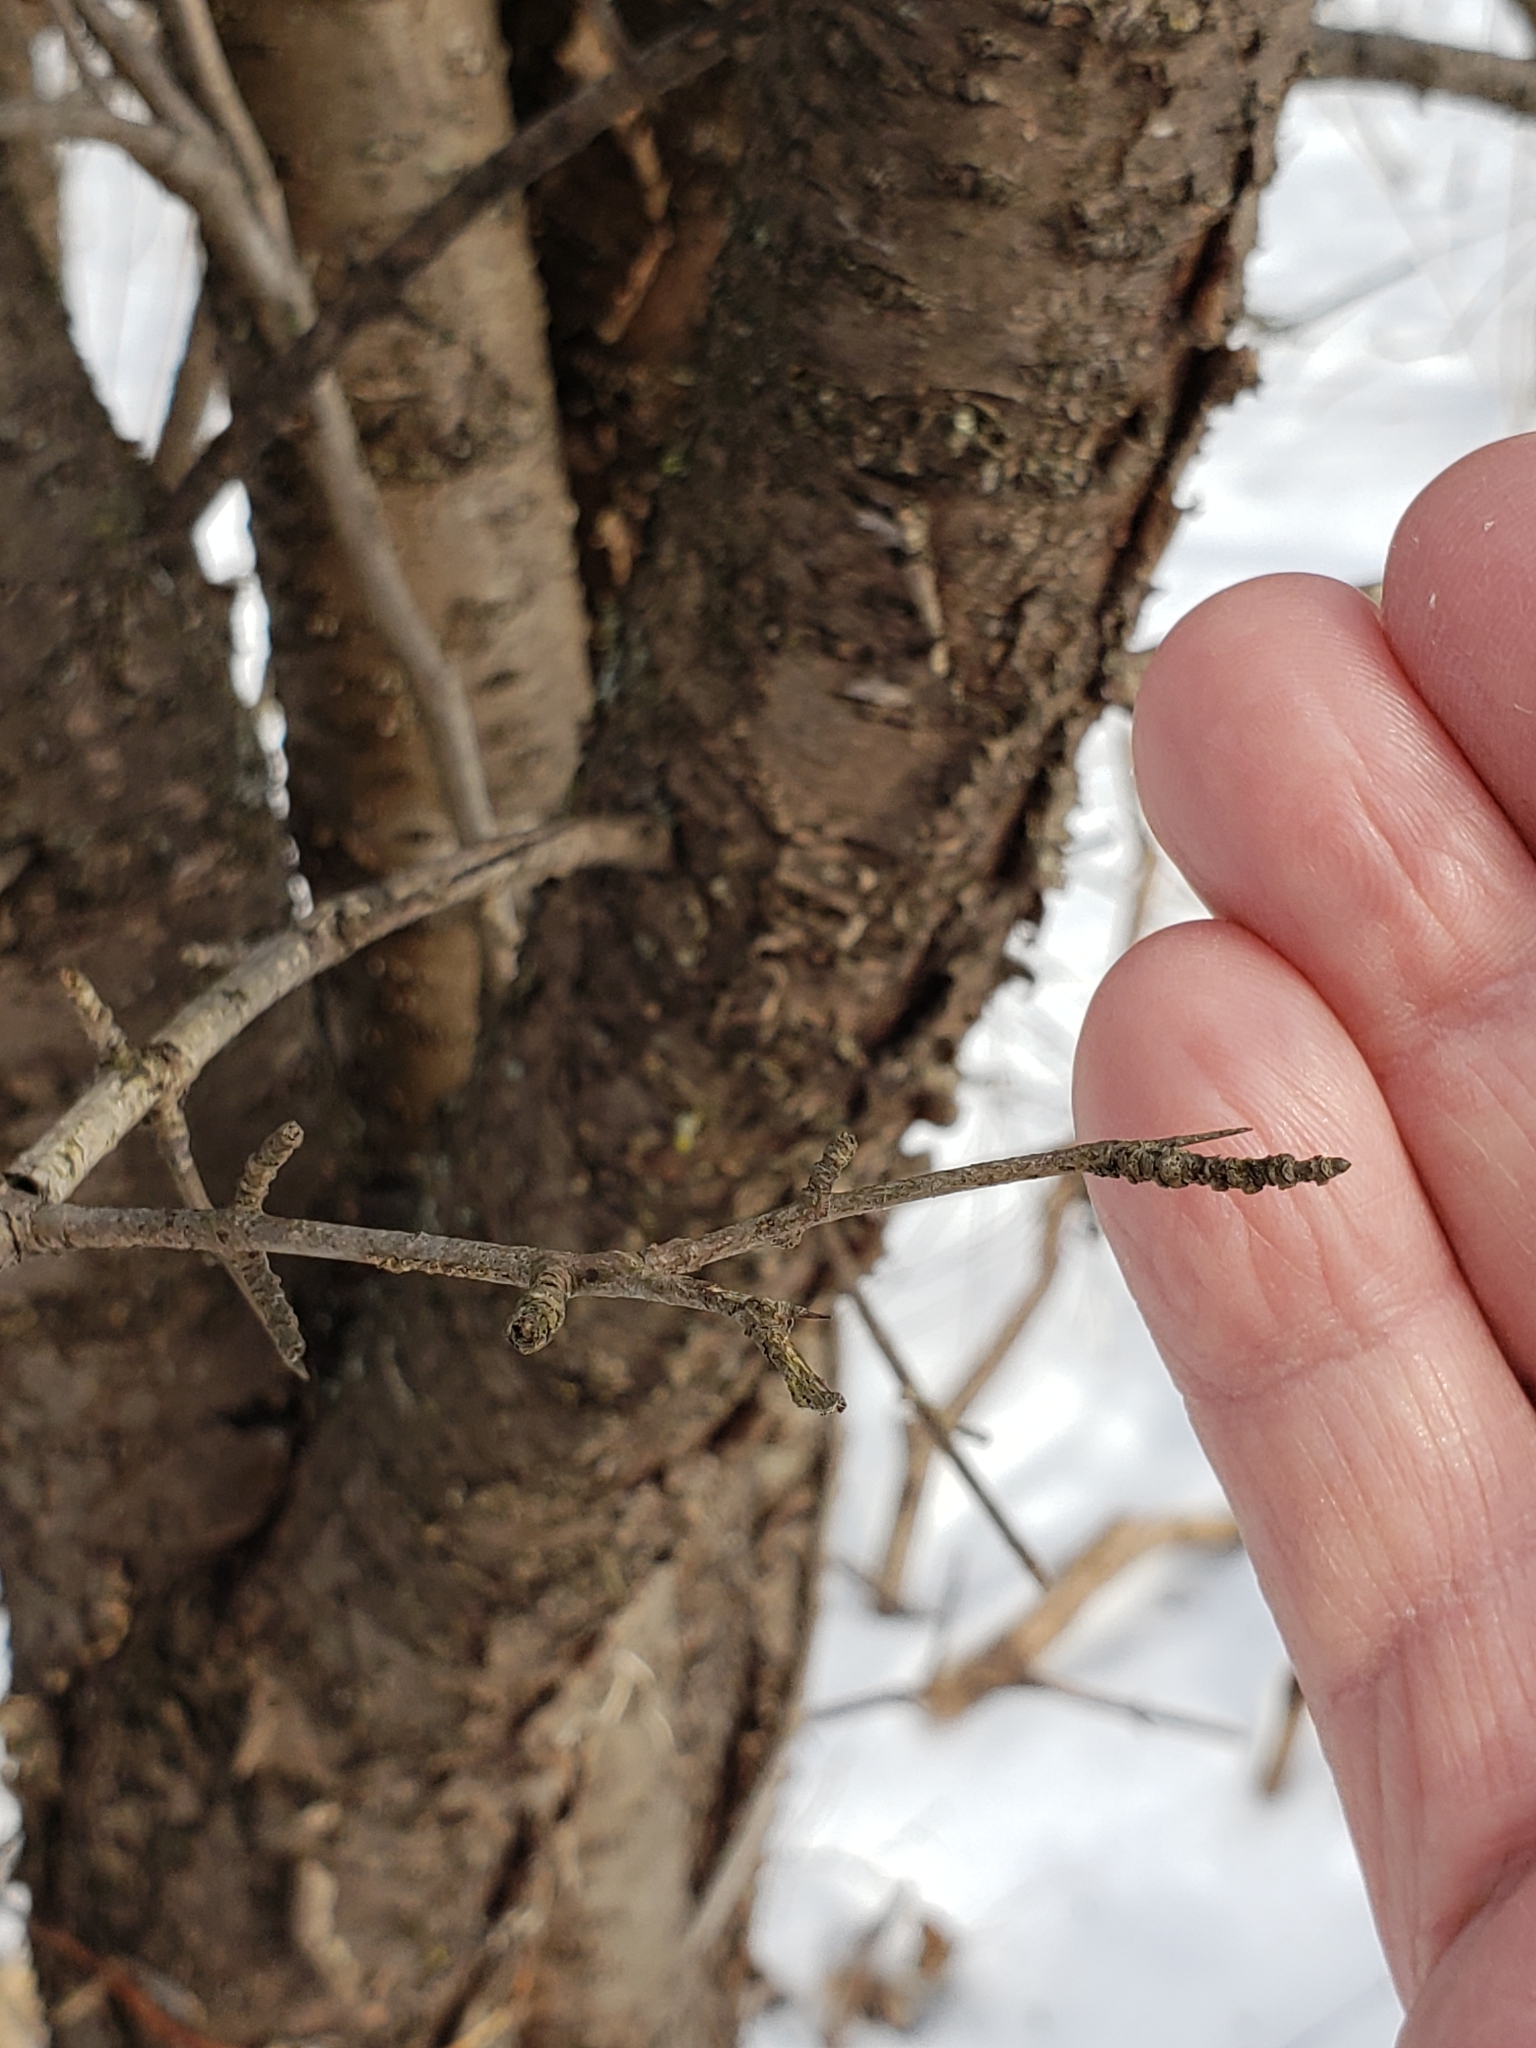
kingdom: Plantae
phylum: Tracheophyta
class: Magnoliopsida
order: Rosales
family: Rhamnaceae
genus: Rhamnus
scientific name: Rhamnus cathartica
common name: Common buckthorn
